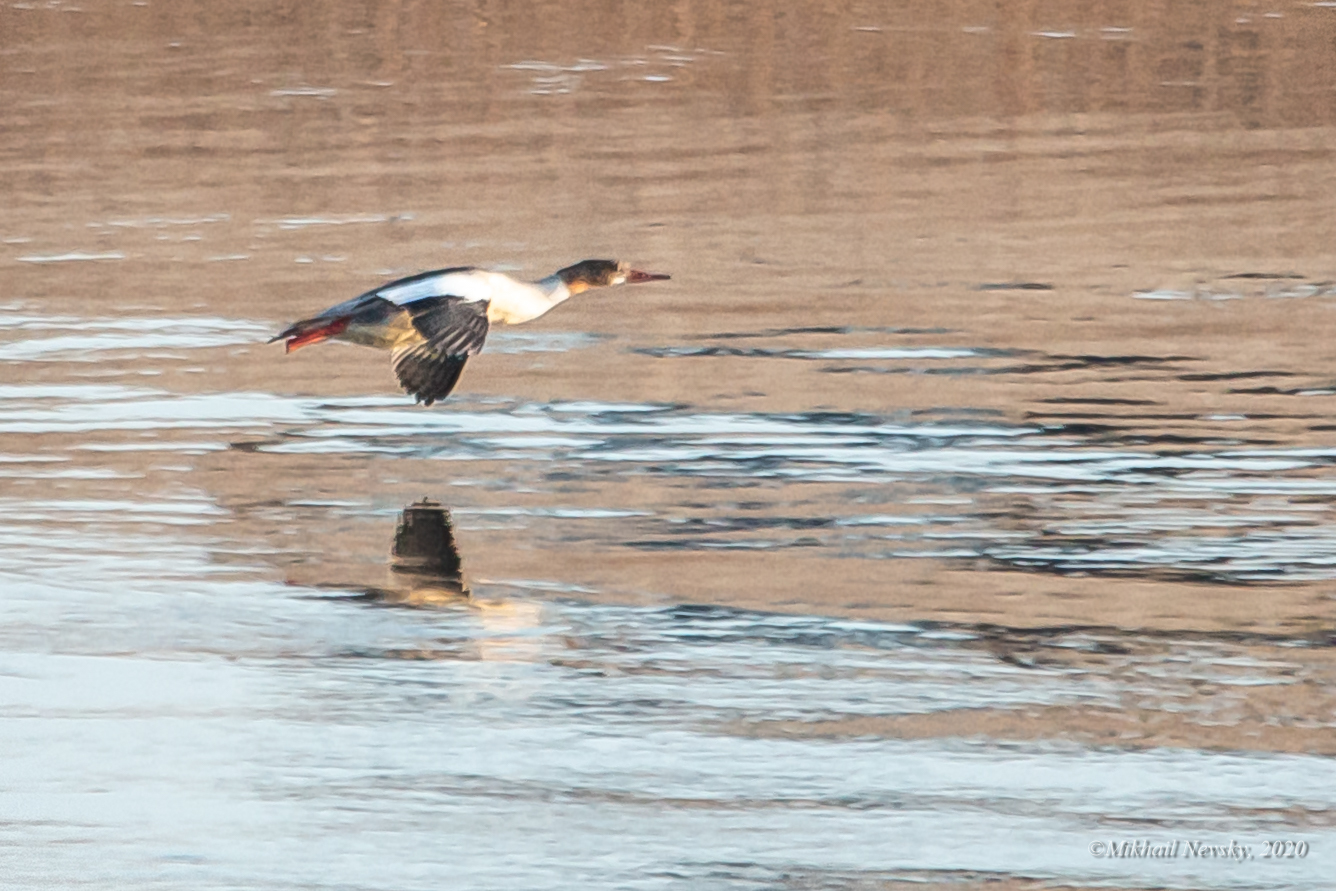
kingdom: Animalia
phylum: Chordata
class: Aves
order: Anseriformes
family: Anatidae
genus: Mergus
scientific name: Mergus merganser
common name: Common merganser
